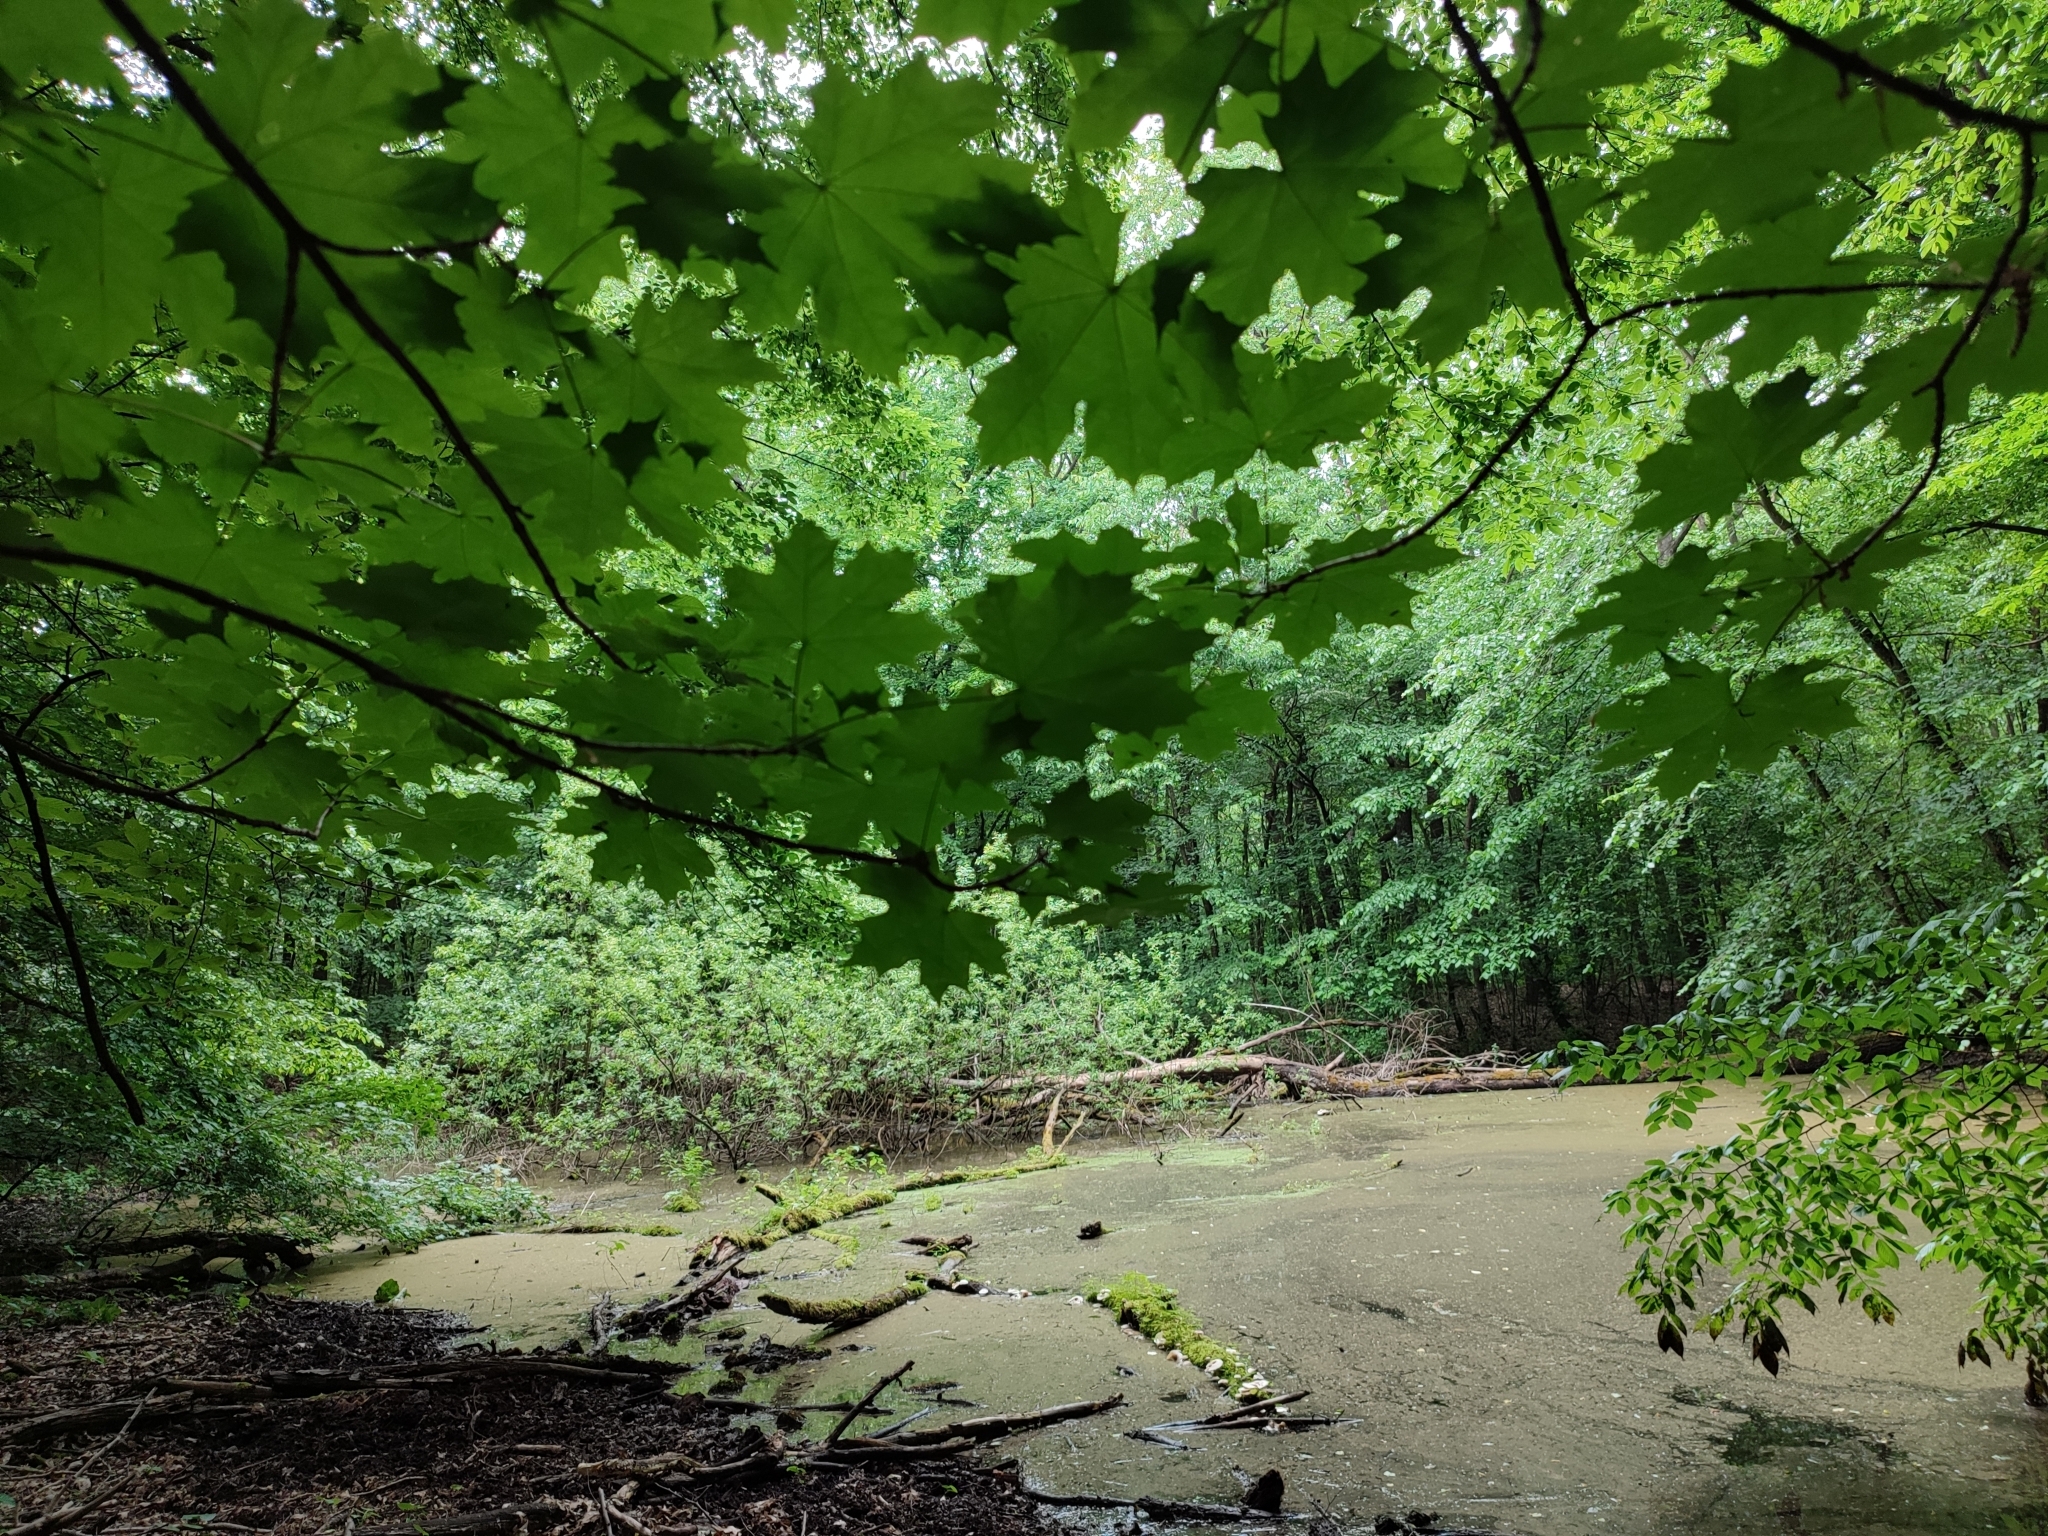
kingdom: Plantae
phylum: Tracheophyta
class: Magnoliopsida
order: Sapindales
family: Sapindaceae
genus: Acer
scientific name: Acer platanoides
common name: Norway maple
